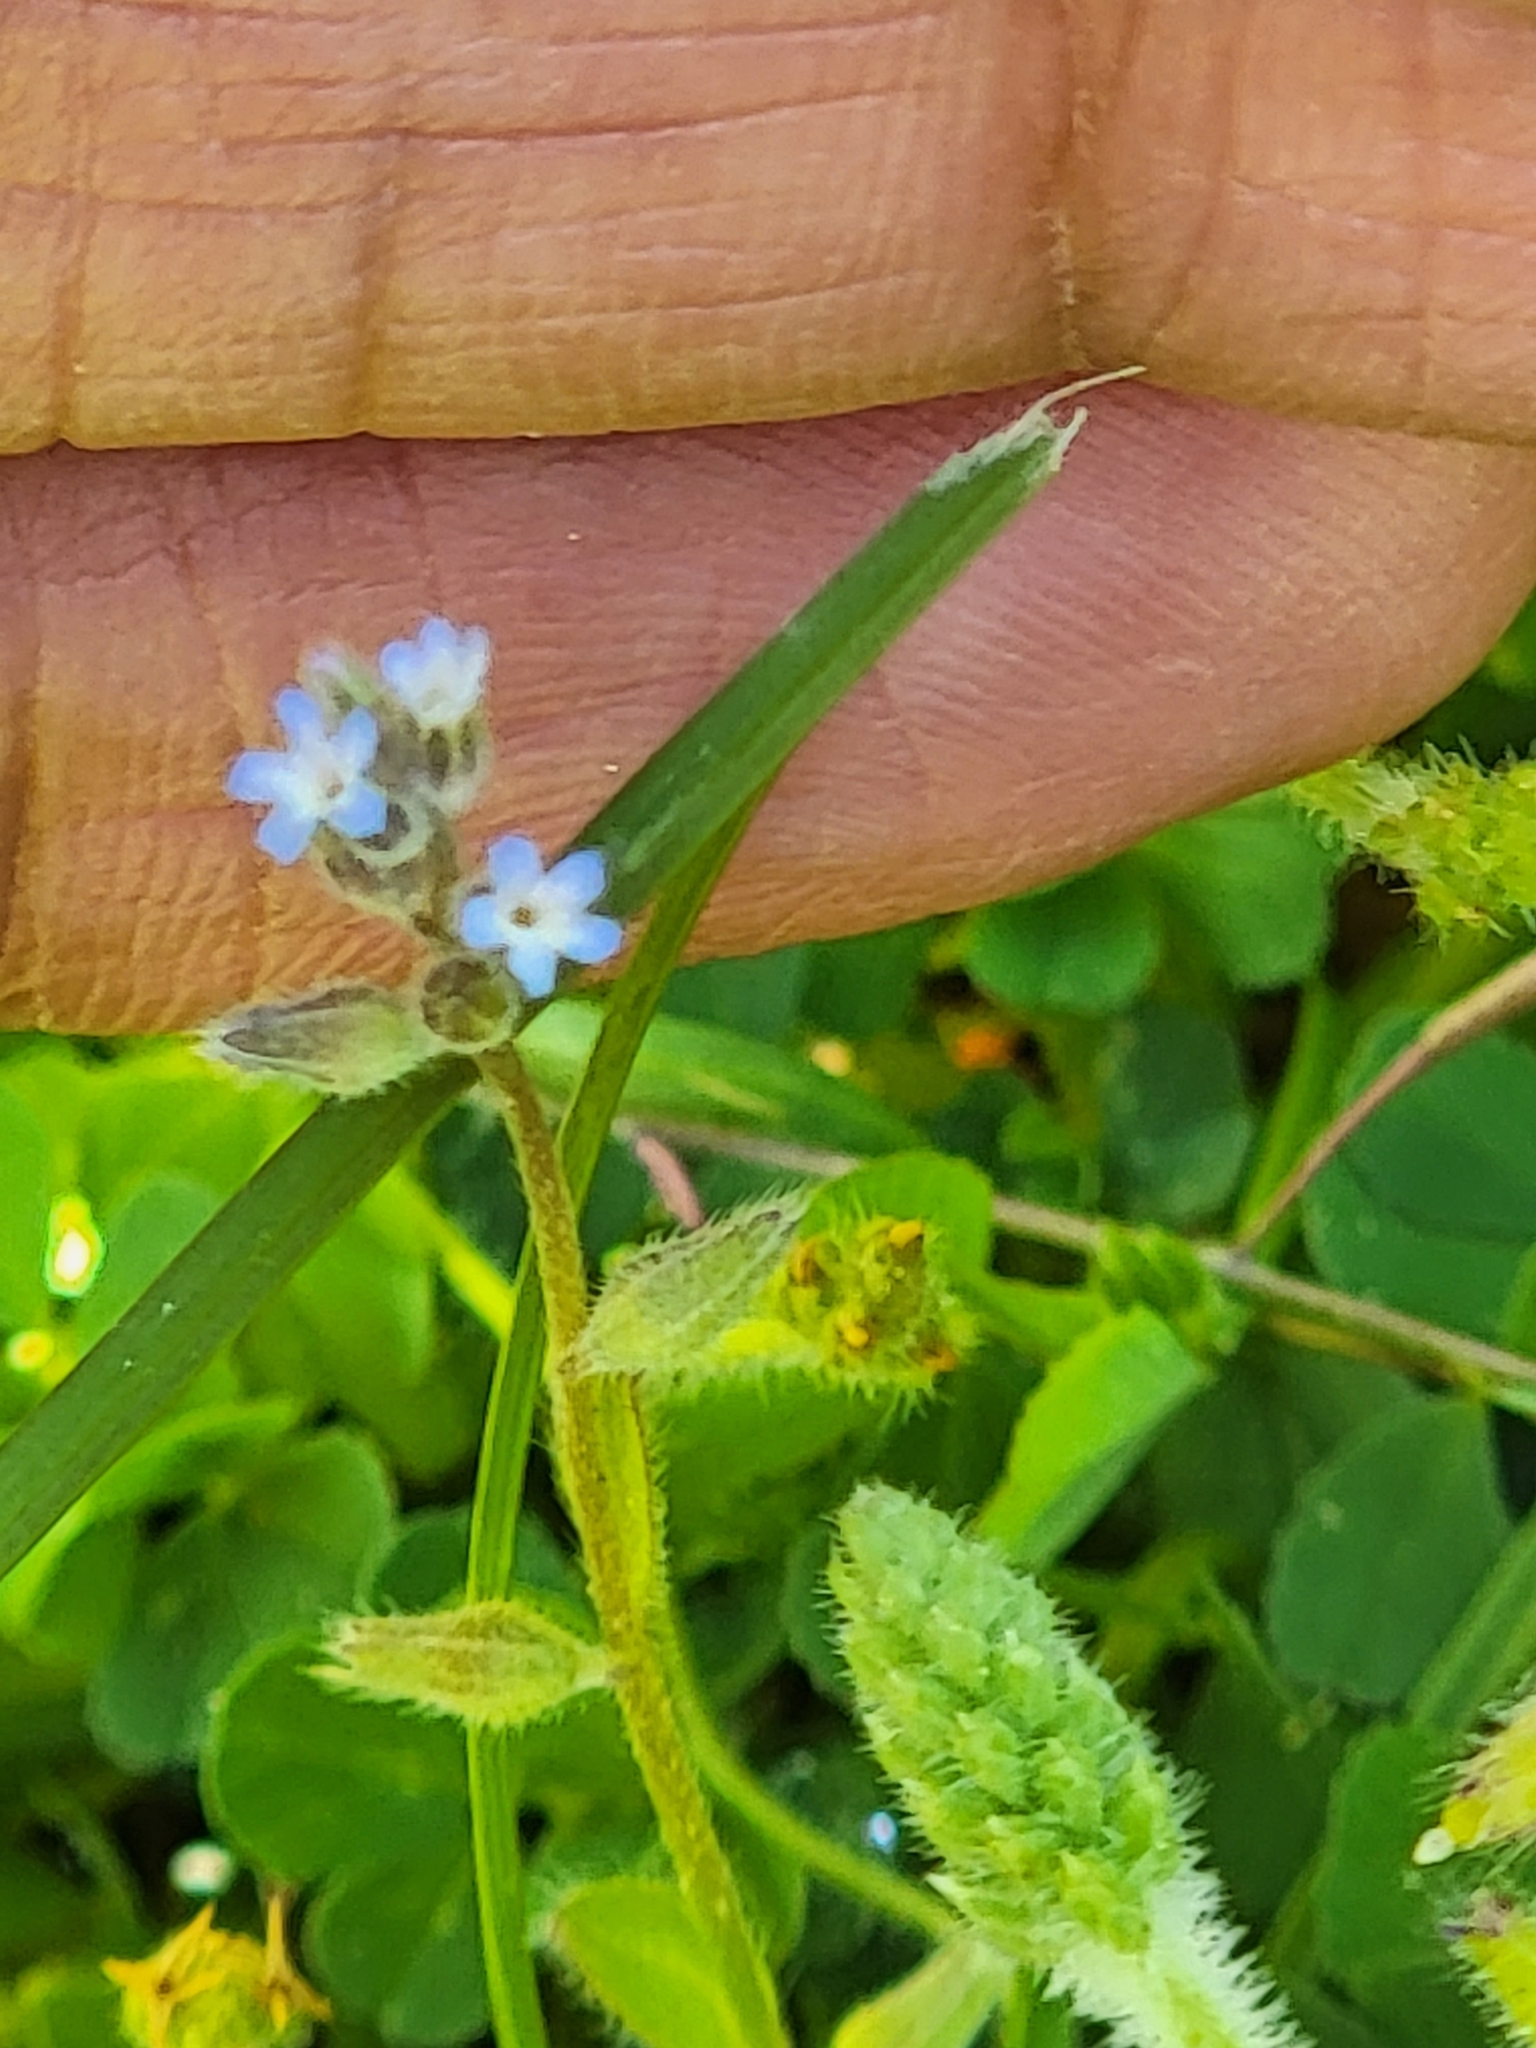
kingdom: Plantae
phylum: Tracheophyta
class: Magnoliopsida
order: Boraginales
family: Boraginaceae
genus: Myosotis
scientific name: Myosotis stricta
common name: Strict forget-me-not
